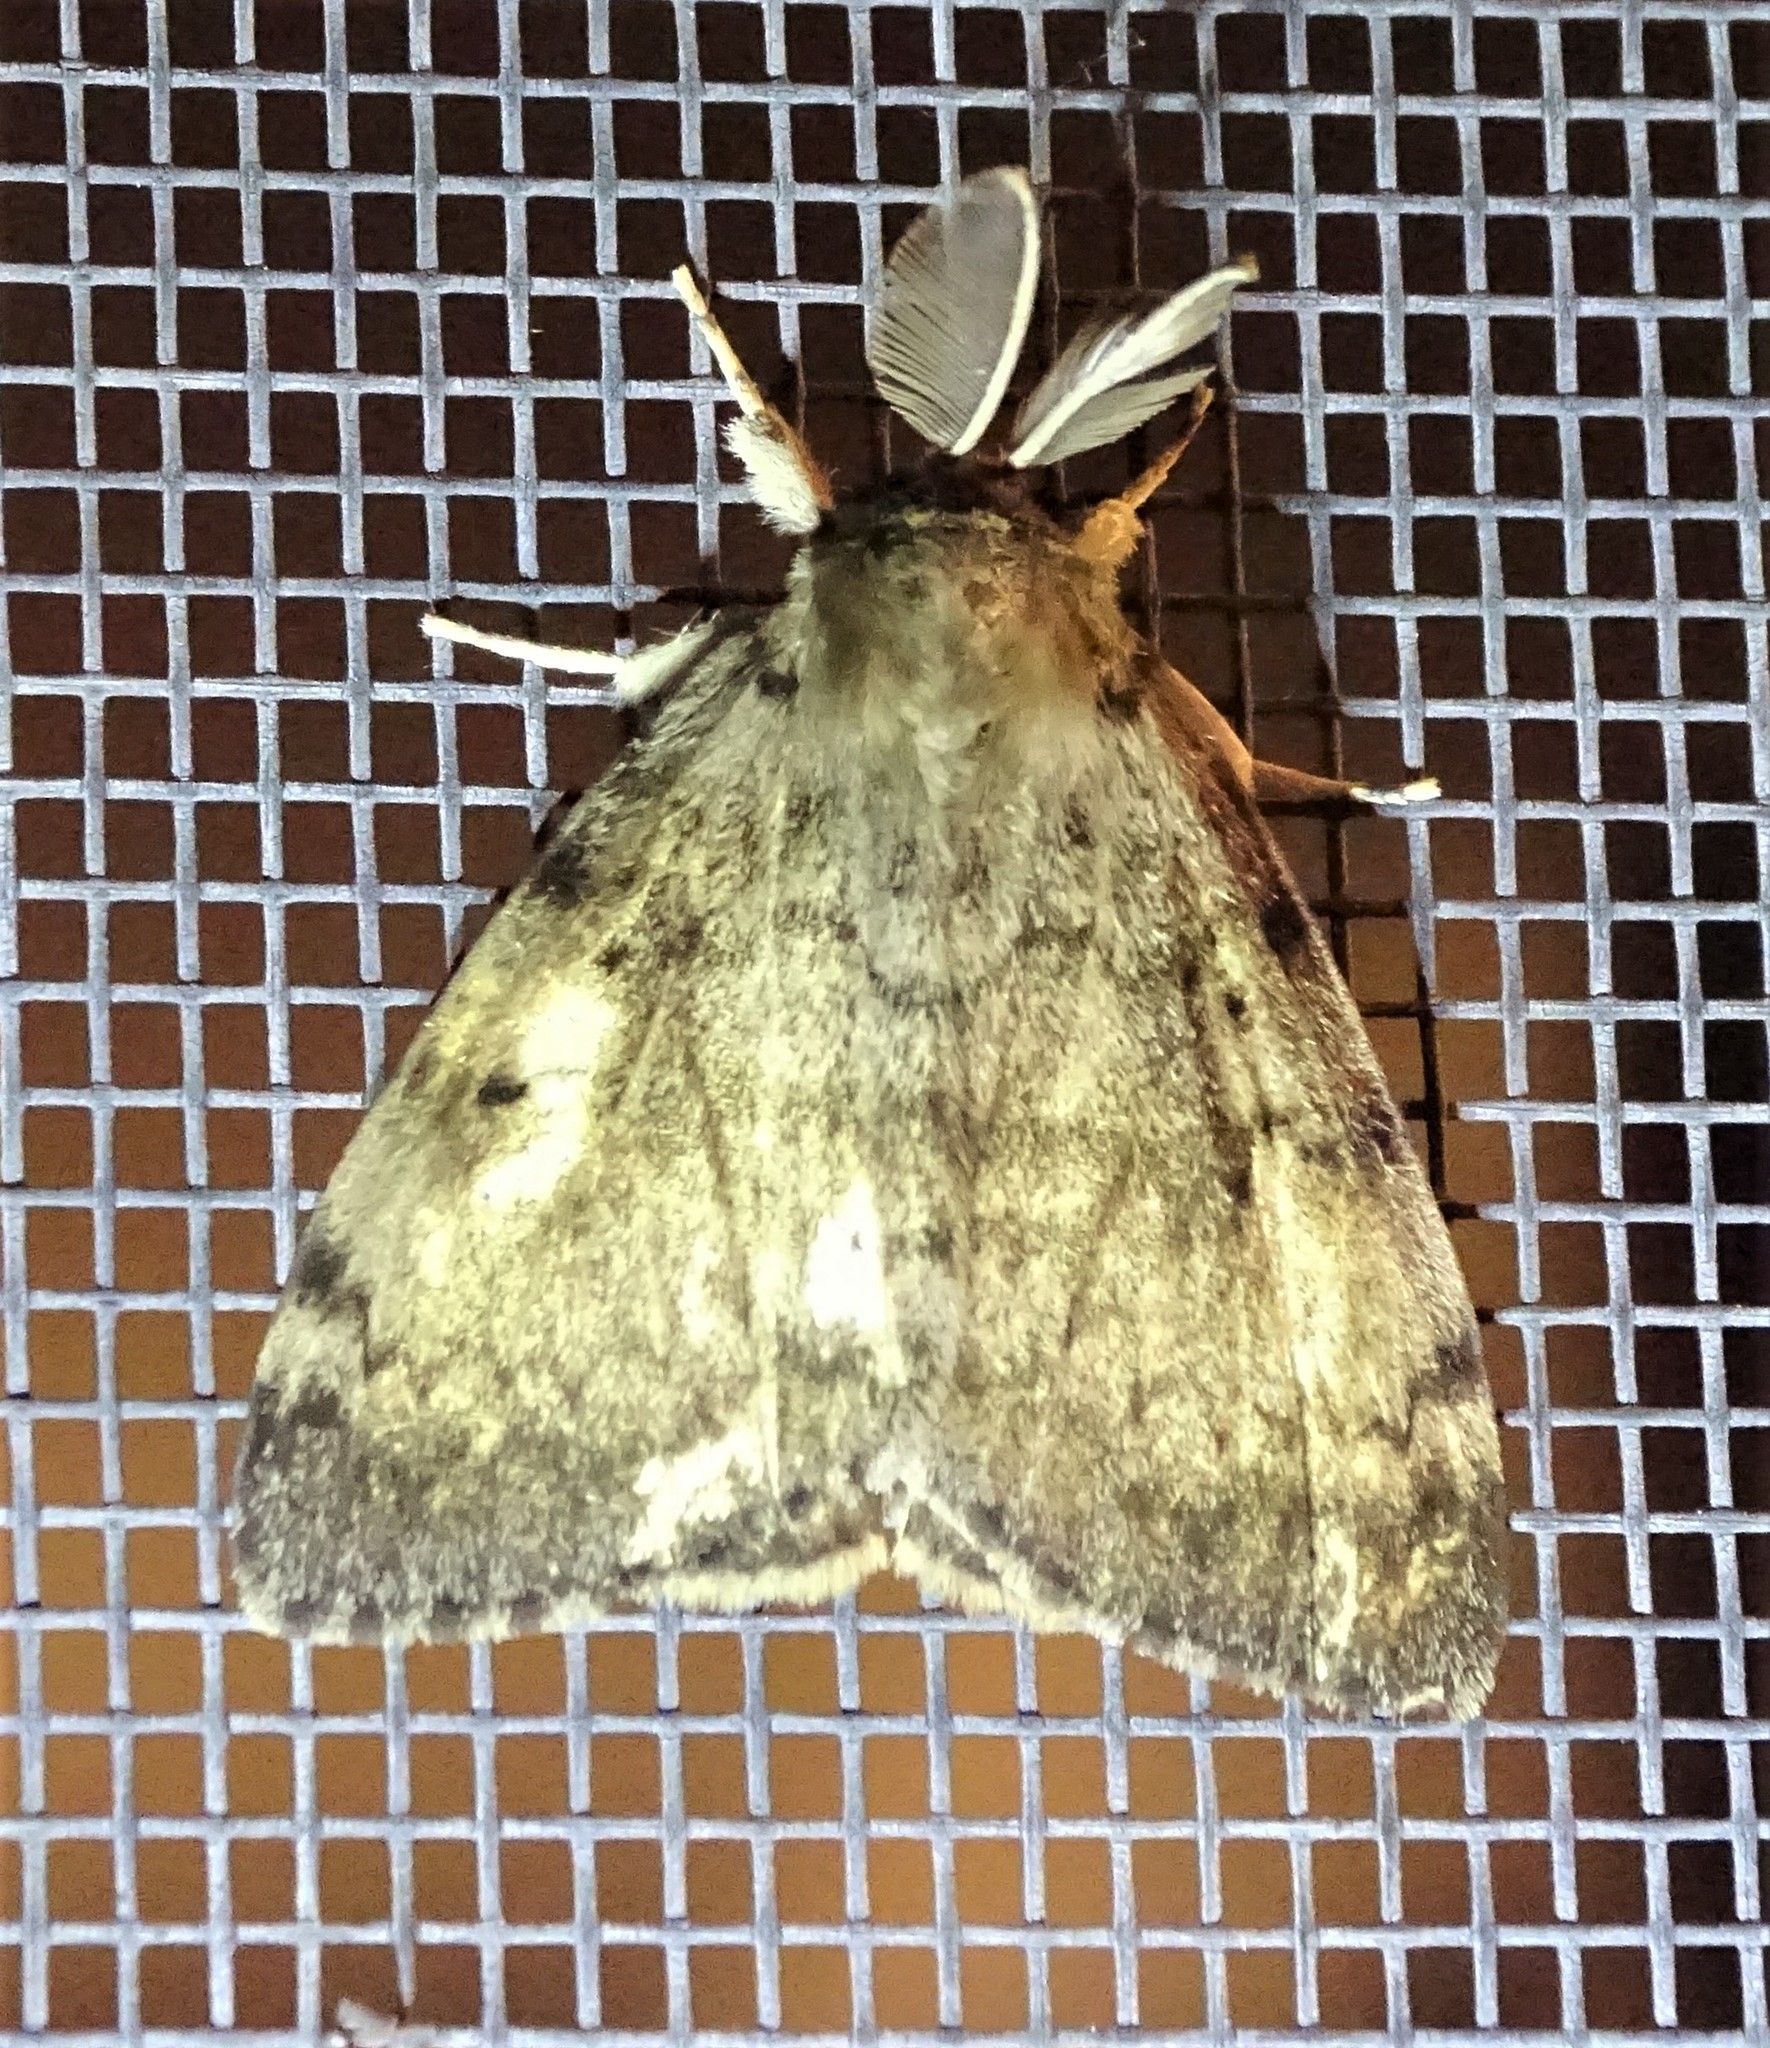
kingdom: Animalia
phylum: Arthropoda
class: Insecta
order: Lepidoptera
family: Erebidae
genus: Lymantria
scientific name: Lymantria dispar
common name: Gypsy moth
